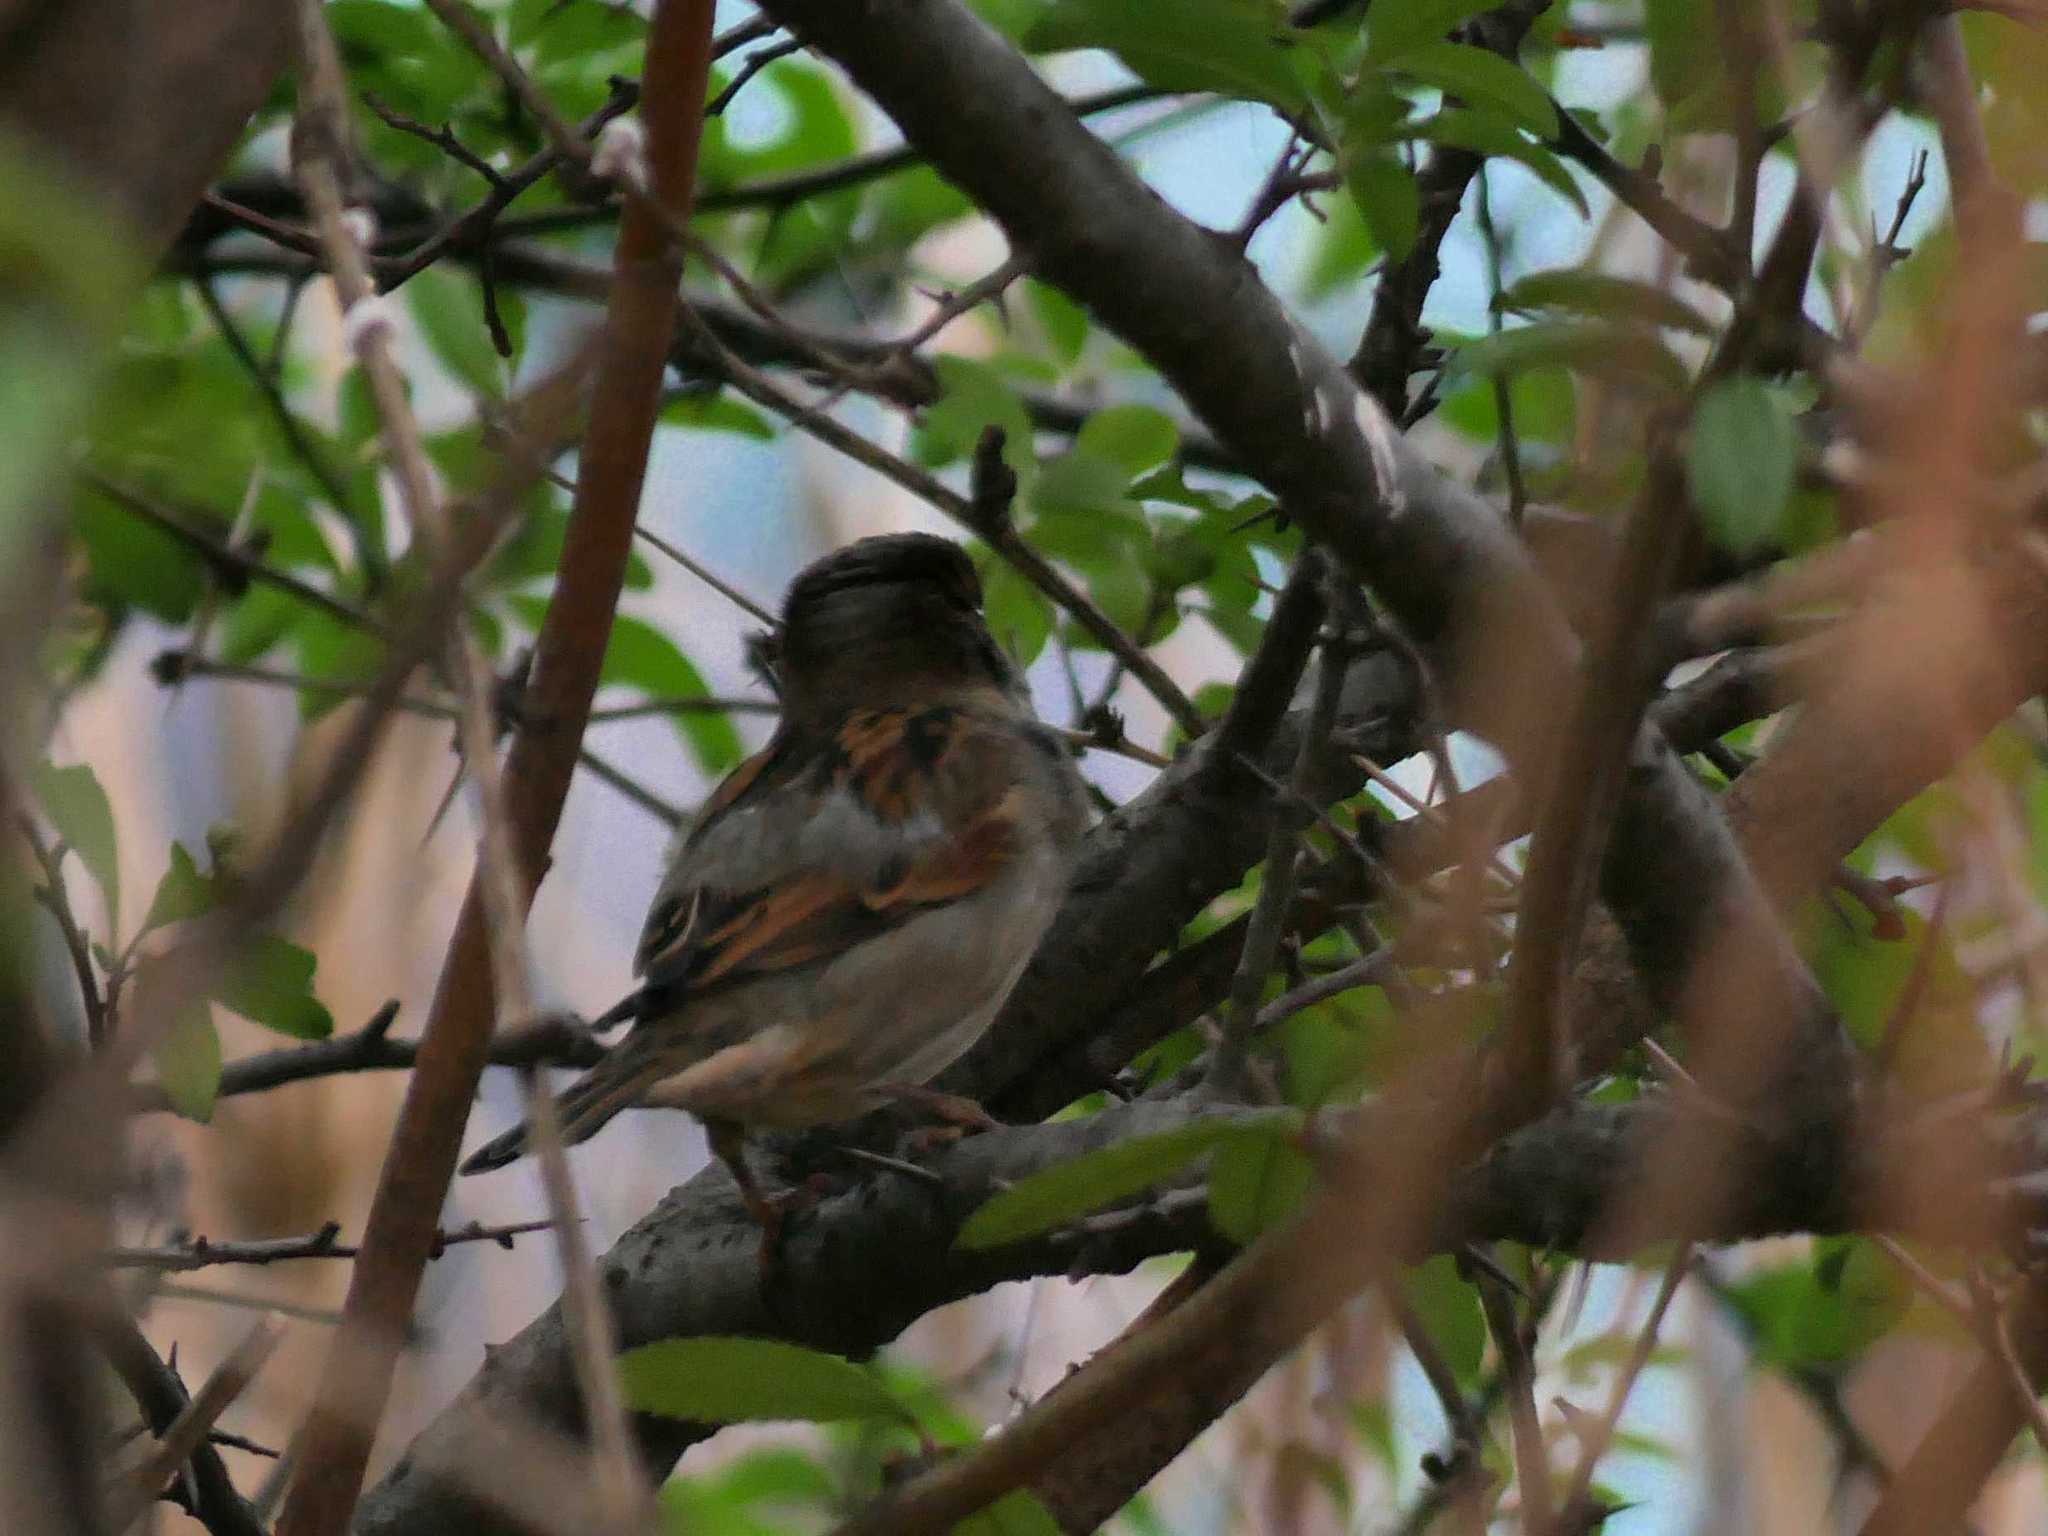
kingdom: Animalia
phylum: Chordata
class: Aves
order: Passeriformes
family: Passeridae
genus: Passer
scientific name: Passer domesticus
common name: House sparrow
